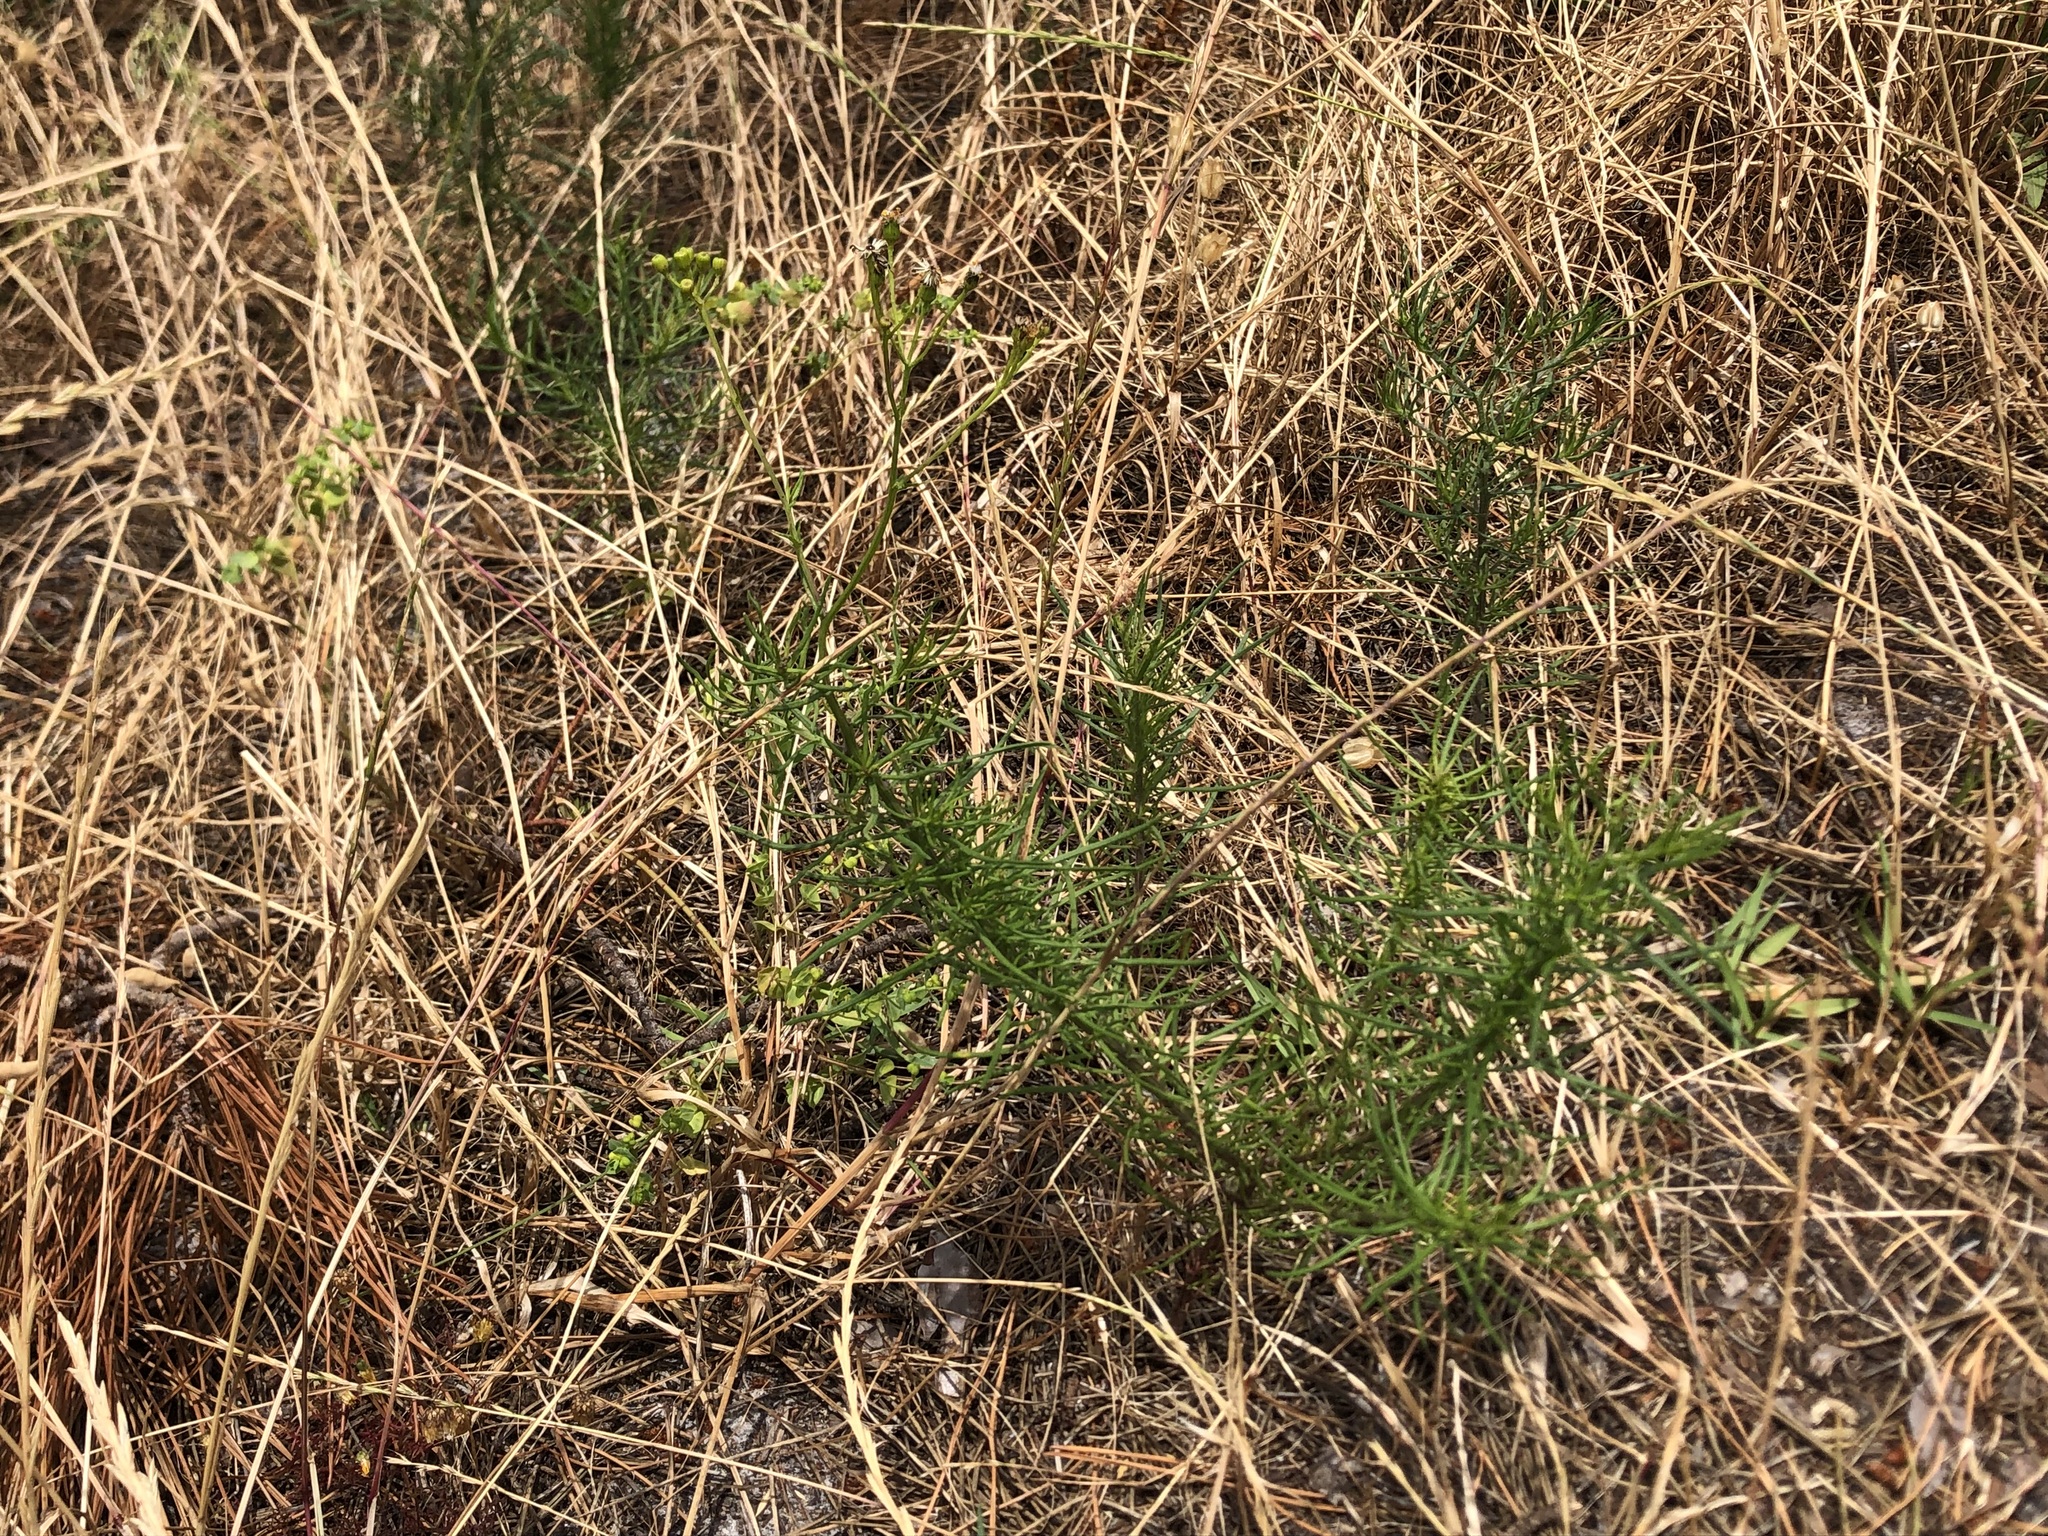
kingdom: Plantae
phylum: Tracheophyta
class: Magnoliopsida
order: Asterales
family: Asteraceae
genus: Senecio
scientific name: Senecio burchellii
